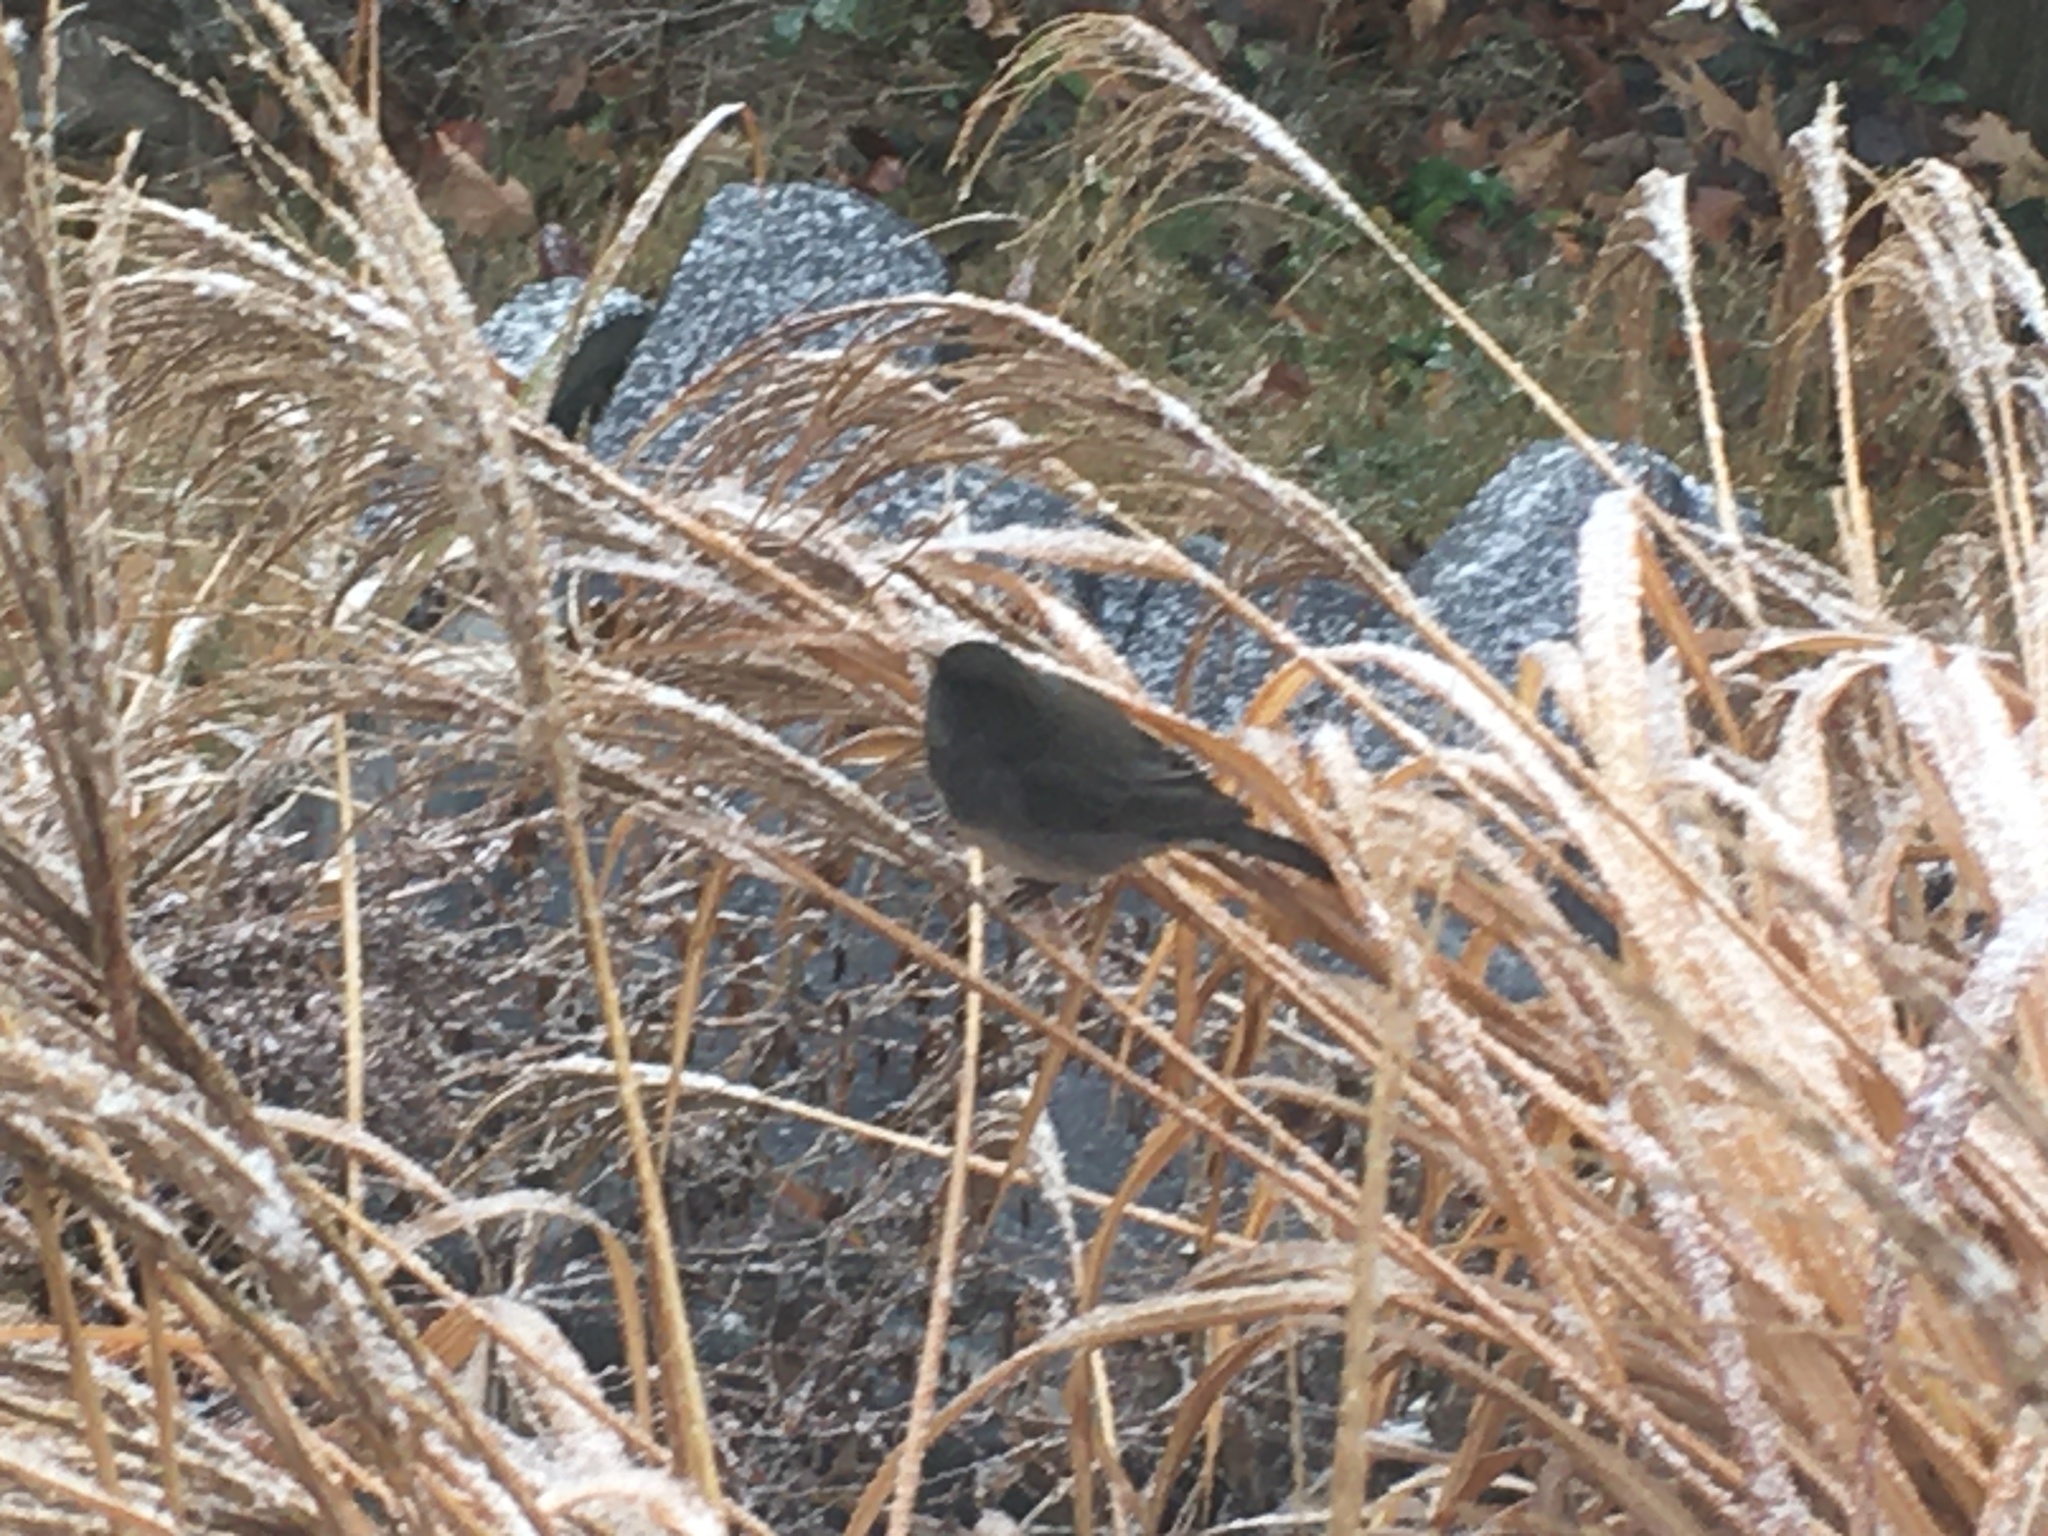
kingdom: Animalia
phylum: Chordata
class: Aves
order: Passeriformes
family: Passerellidae
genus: Junco
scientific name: Junco hyemalis
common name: Dark-eyed junco
